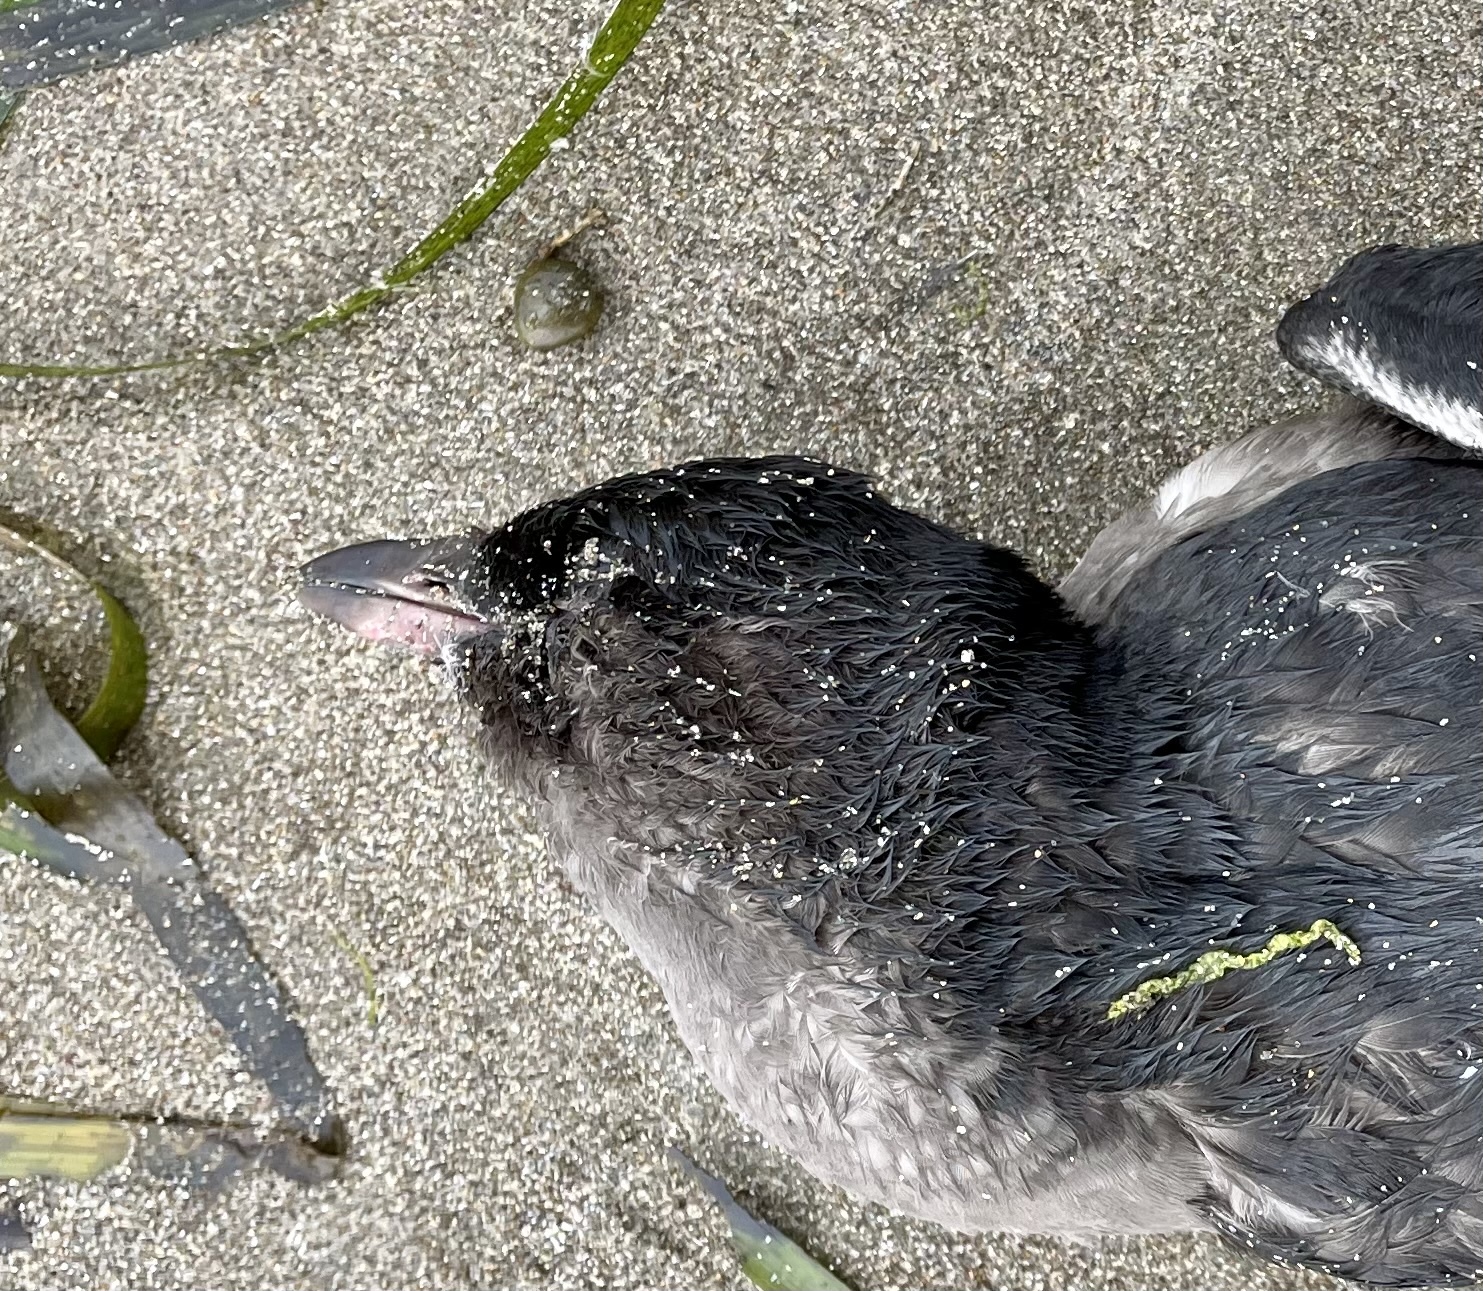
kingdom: Animalia
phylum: Chordata
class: Aves
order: Charadriiformes
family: Alcidae
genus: Ptychoramphus
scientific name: Ptychoramphus aleuticus
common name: Cassin's auklet
